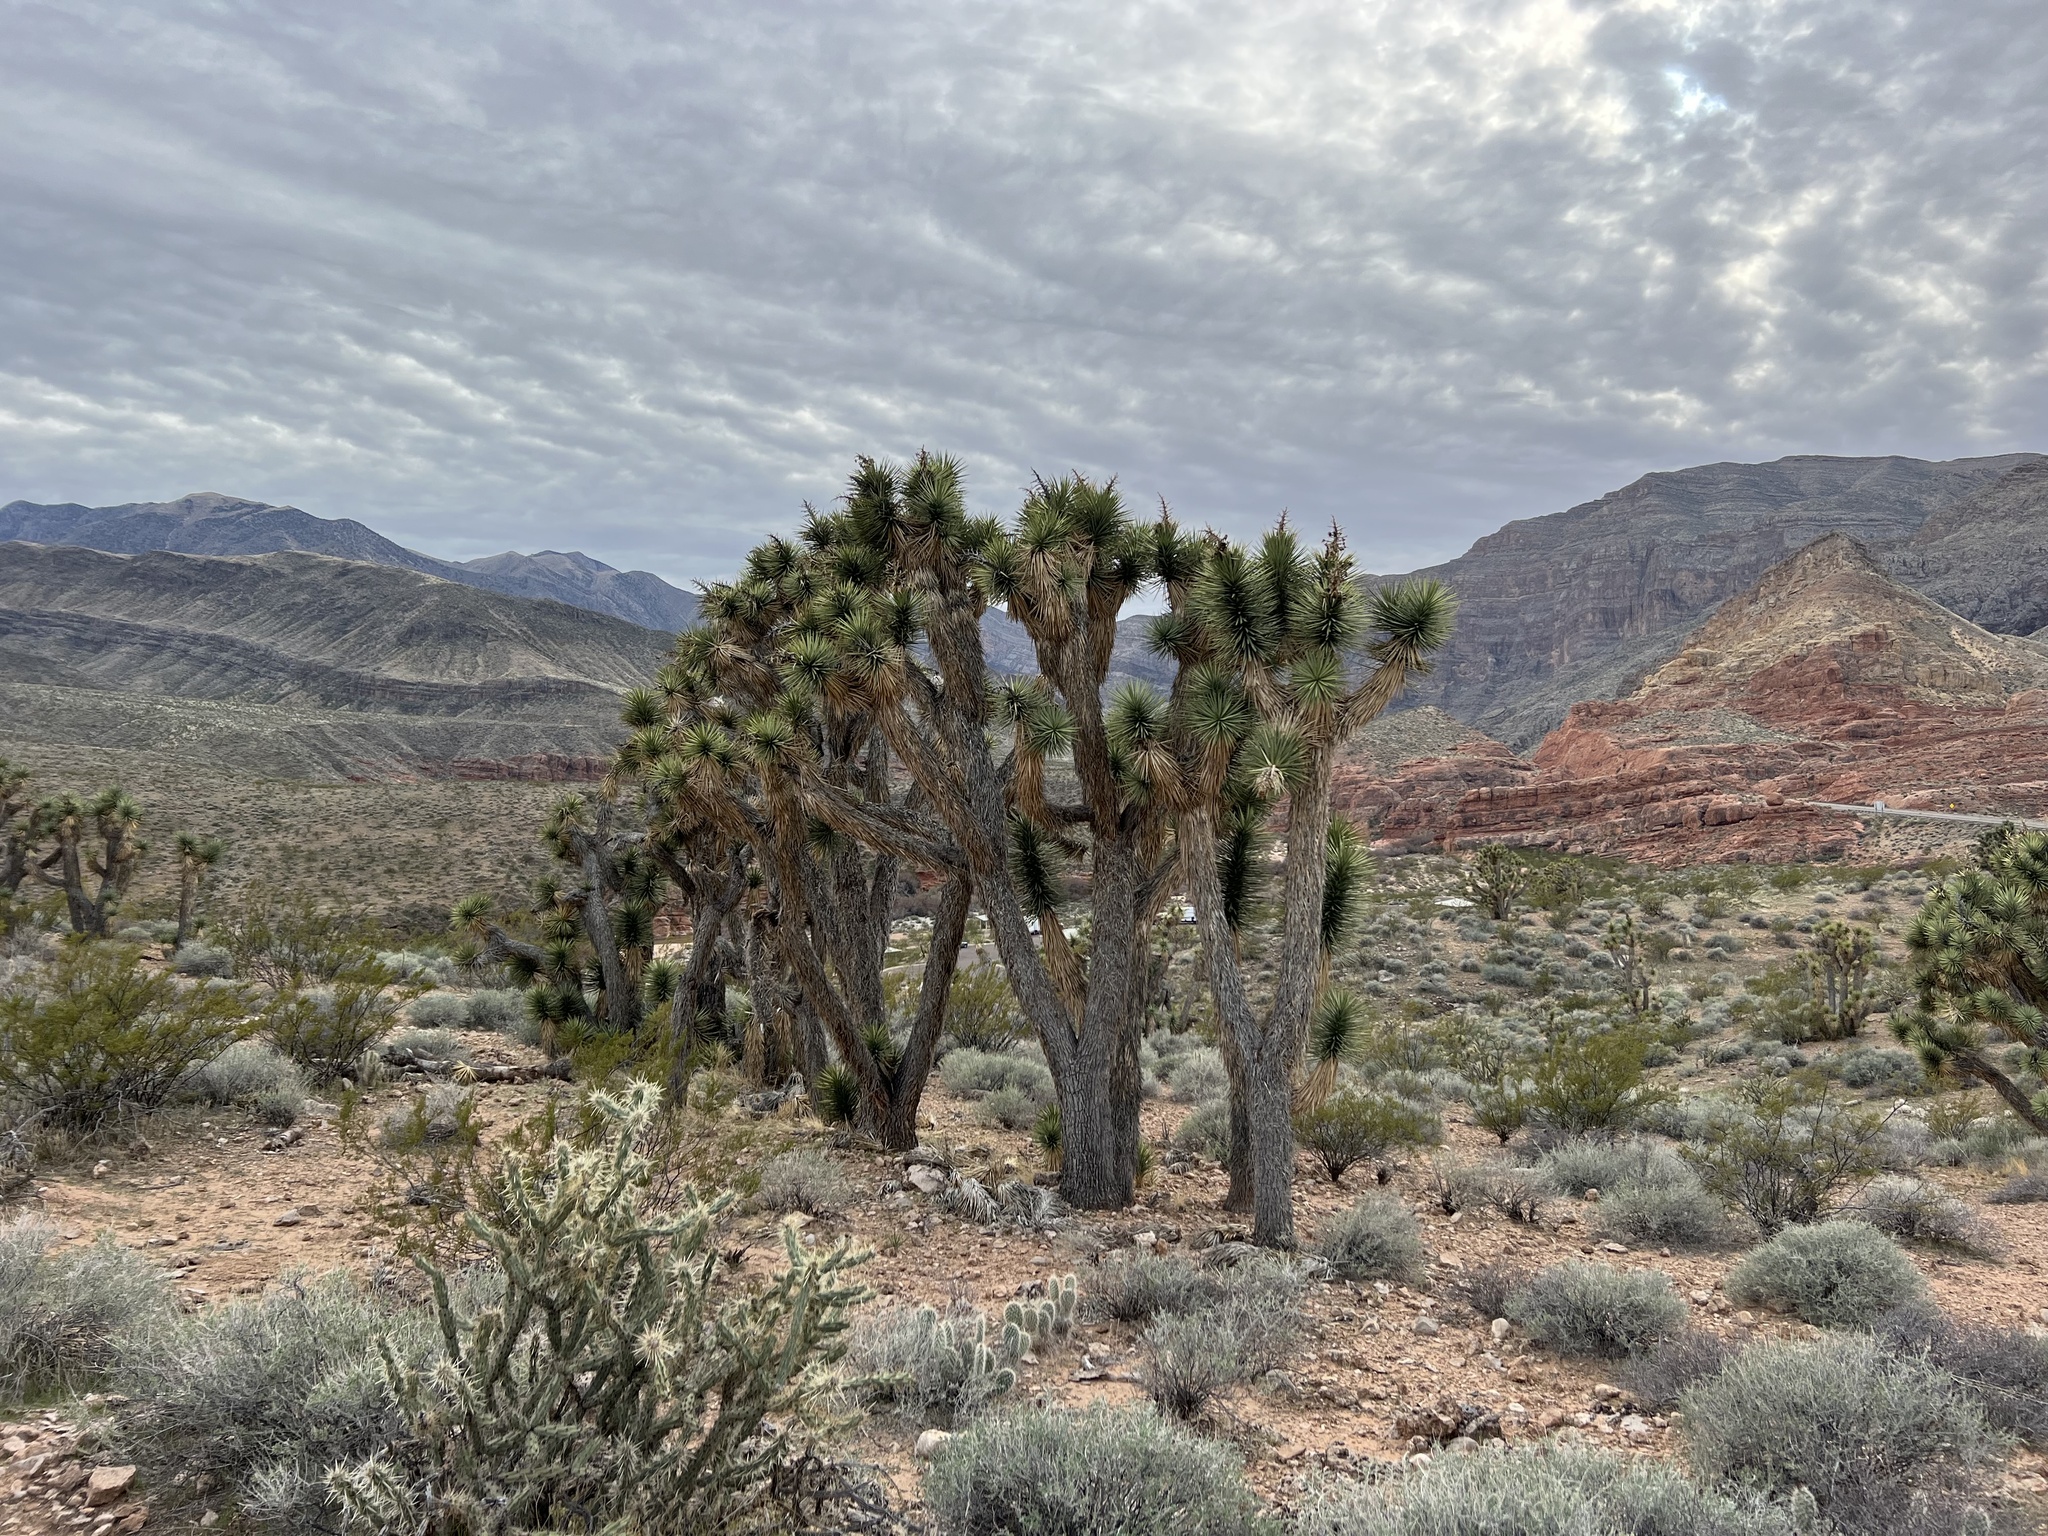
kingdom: Plantae
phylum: Tracheophyta
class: Liliopsida
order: Asparagales
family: Asparagaceae
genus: Yucca
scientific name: Yucca brevifolia
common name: Joshua tree
